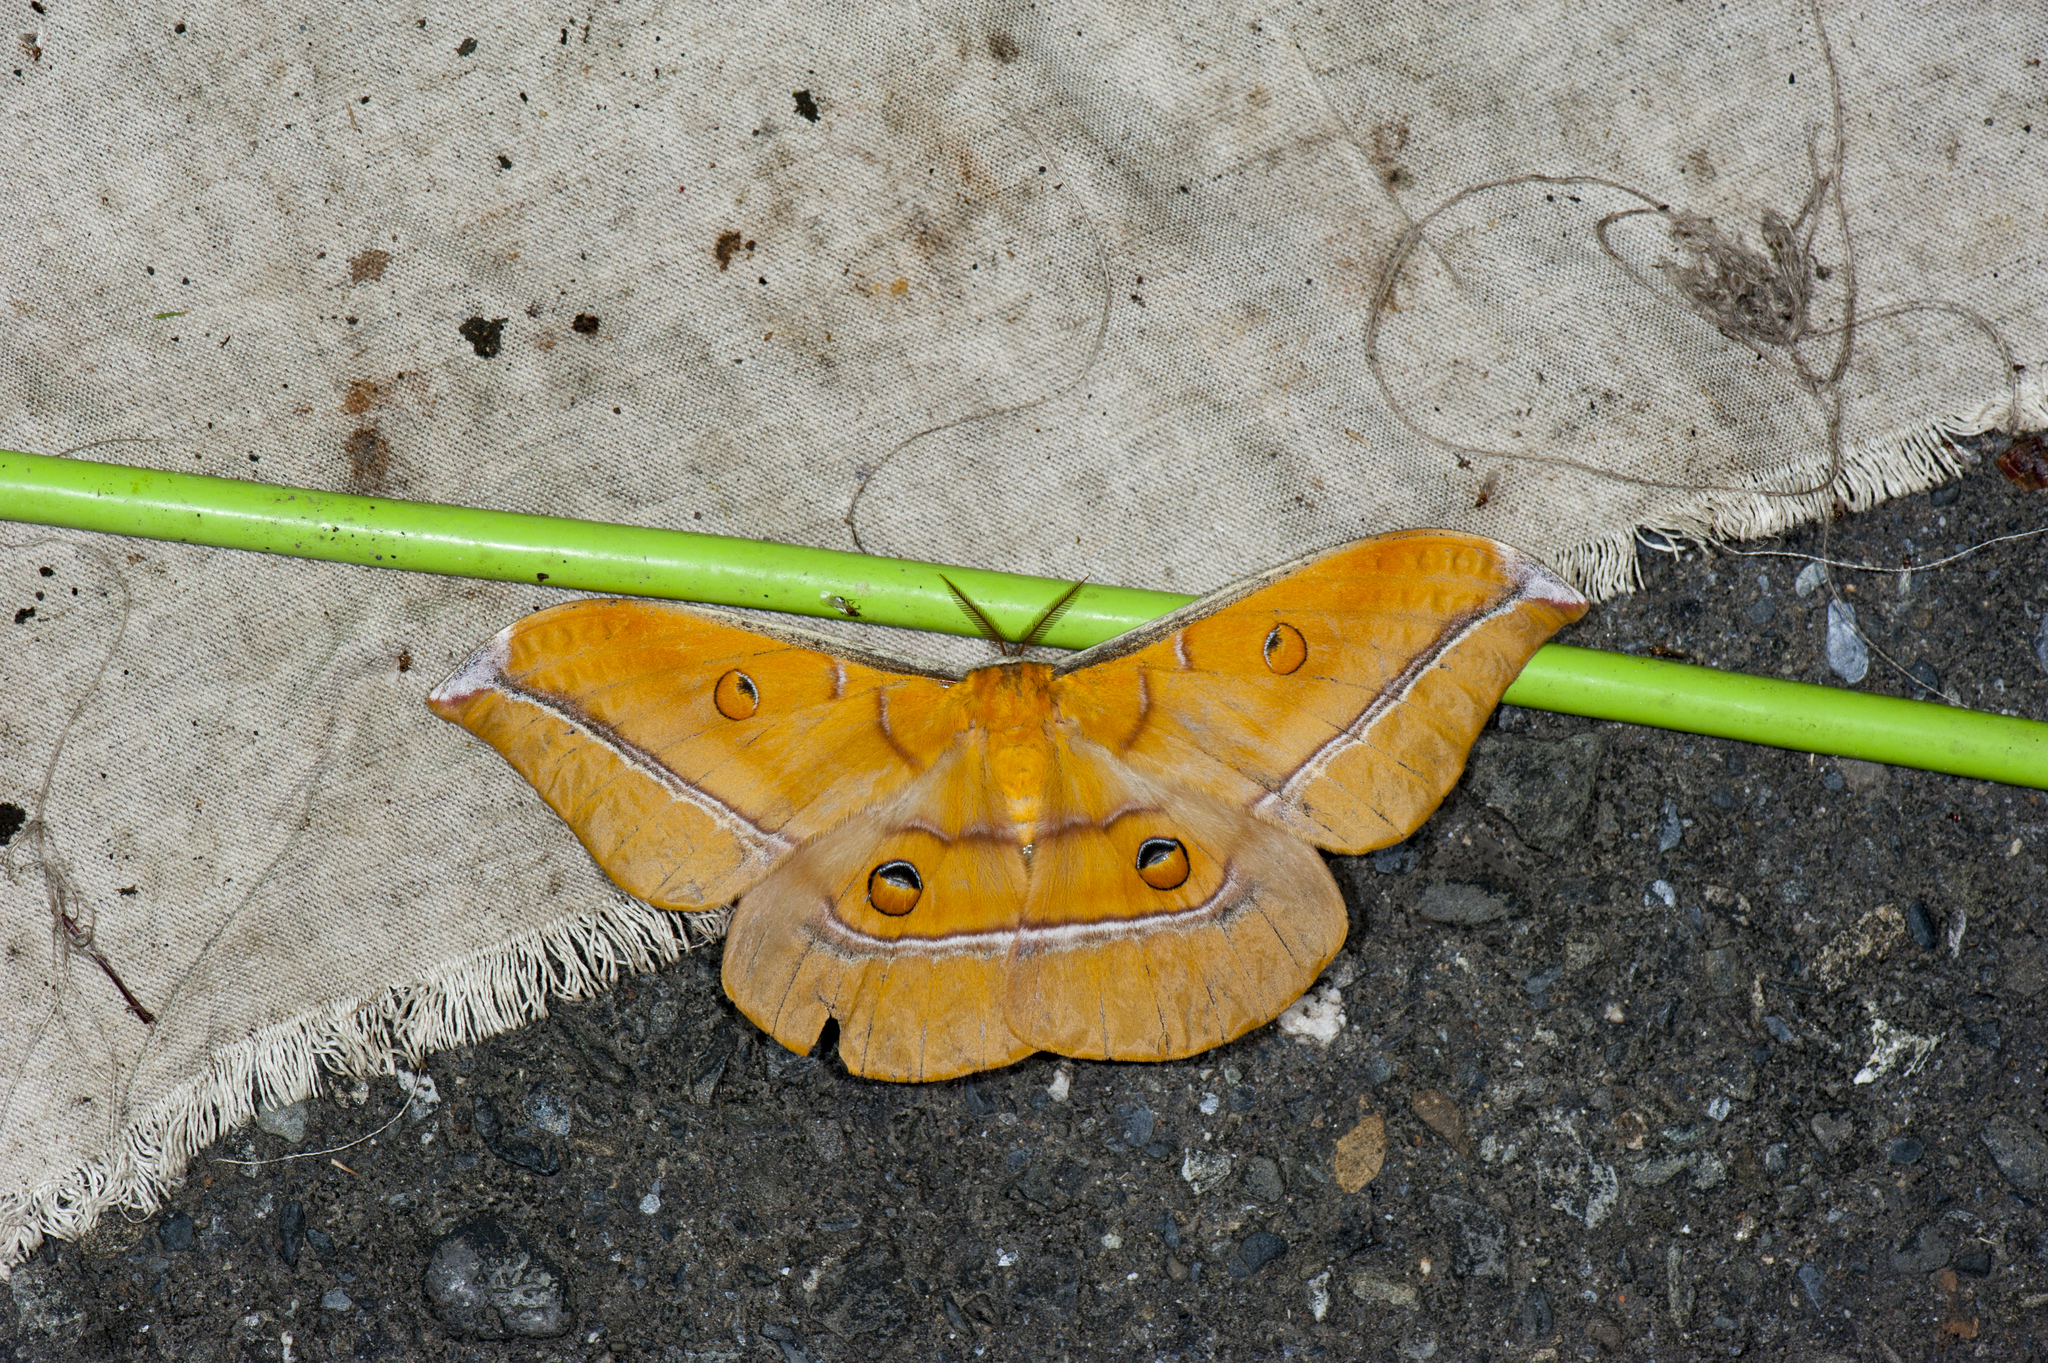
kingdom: Animalia
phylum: Arthropoda
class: Insecta
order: Lepidoptera
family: Saturniidae
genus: Antheraea
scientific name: Antheraea formosana
